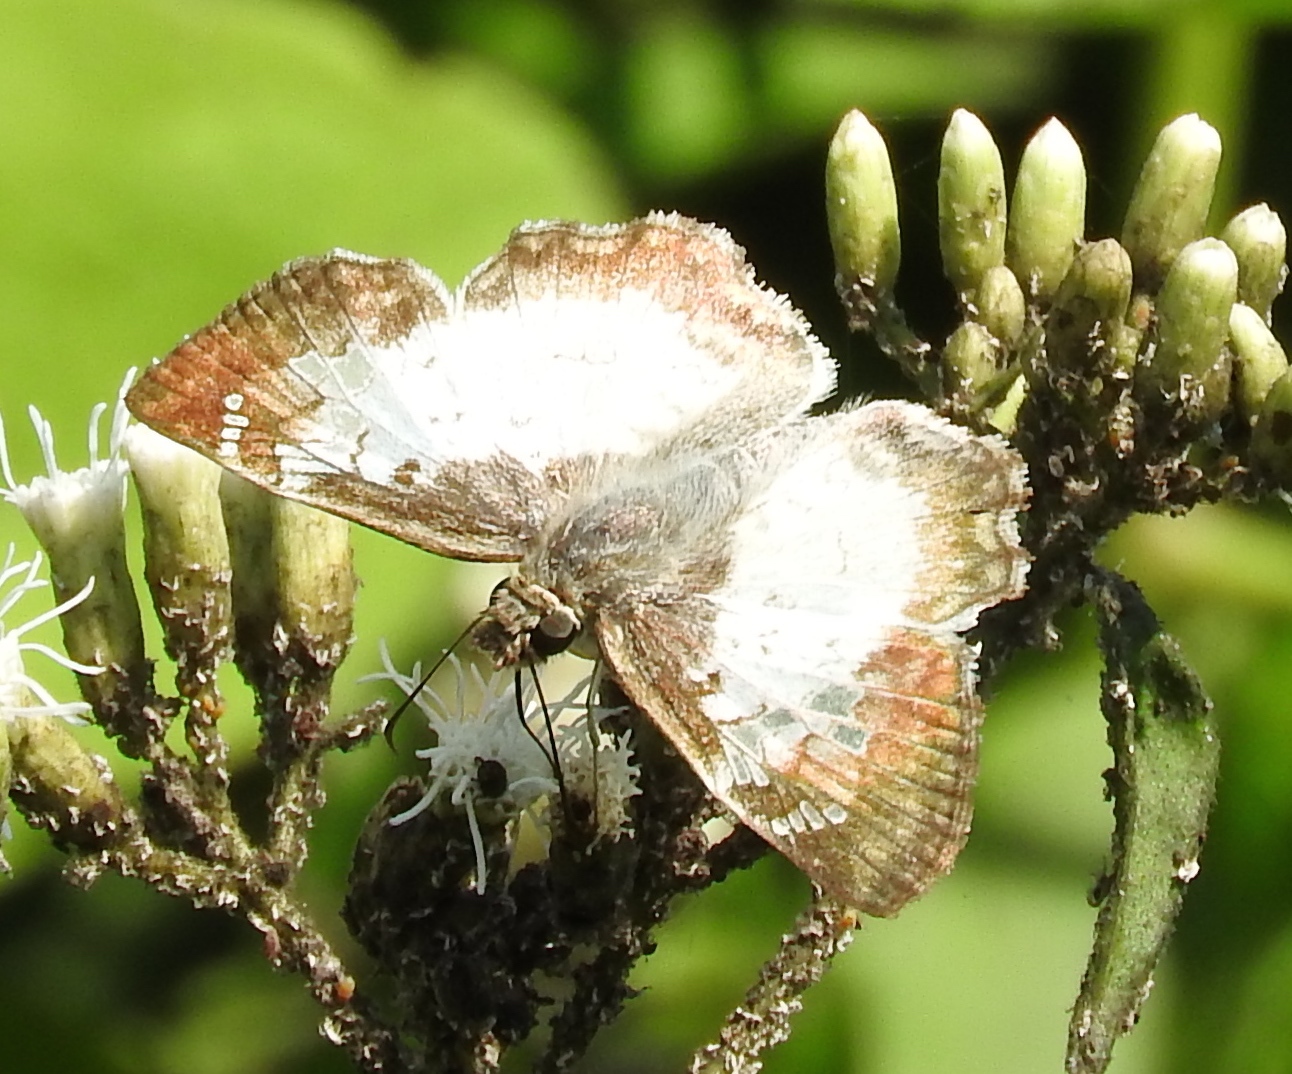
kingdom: Animalia
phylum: Arthropoda
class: Insecta
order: Lepidoptera
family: Hesperiidae
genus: Antigonus
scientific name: Antigonus emorsa
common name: White spurwing
